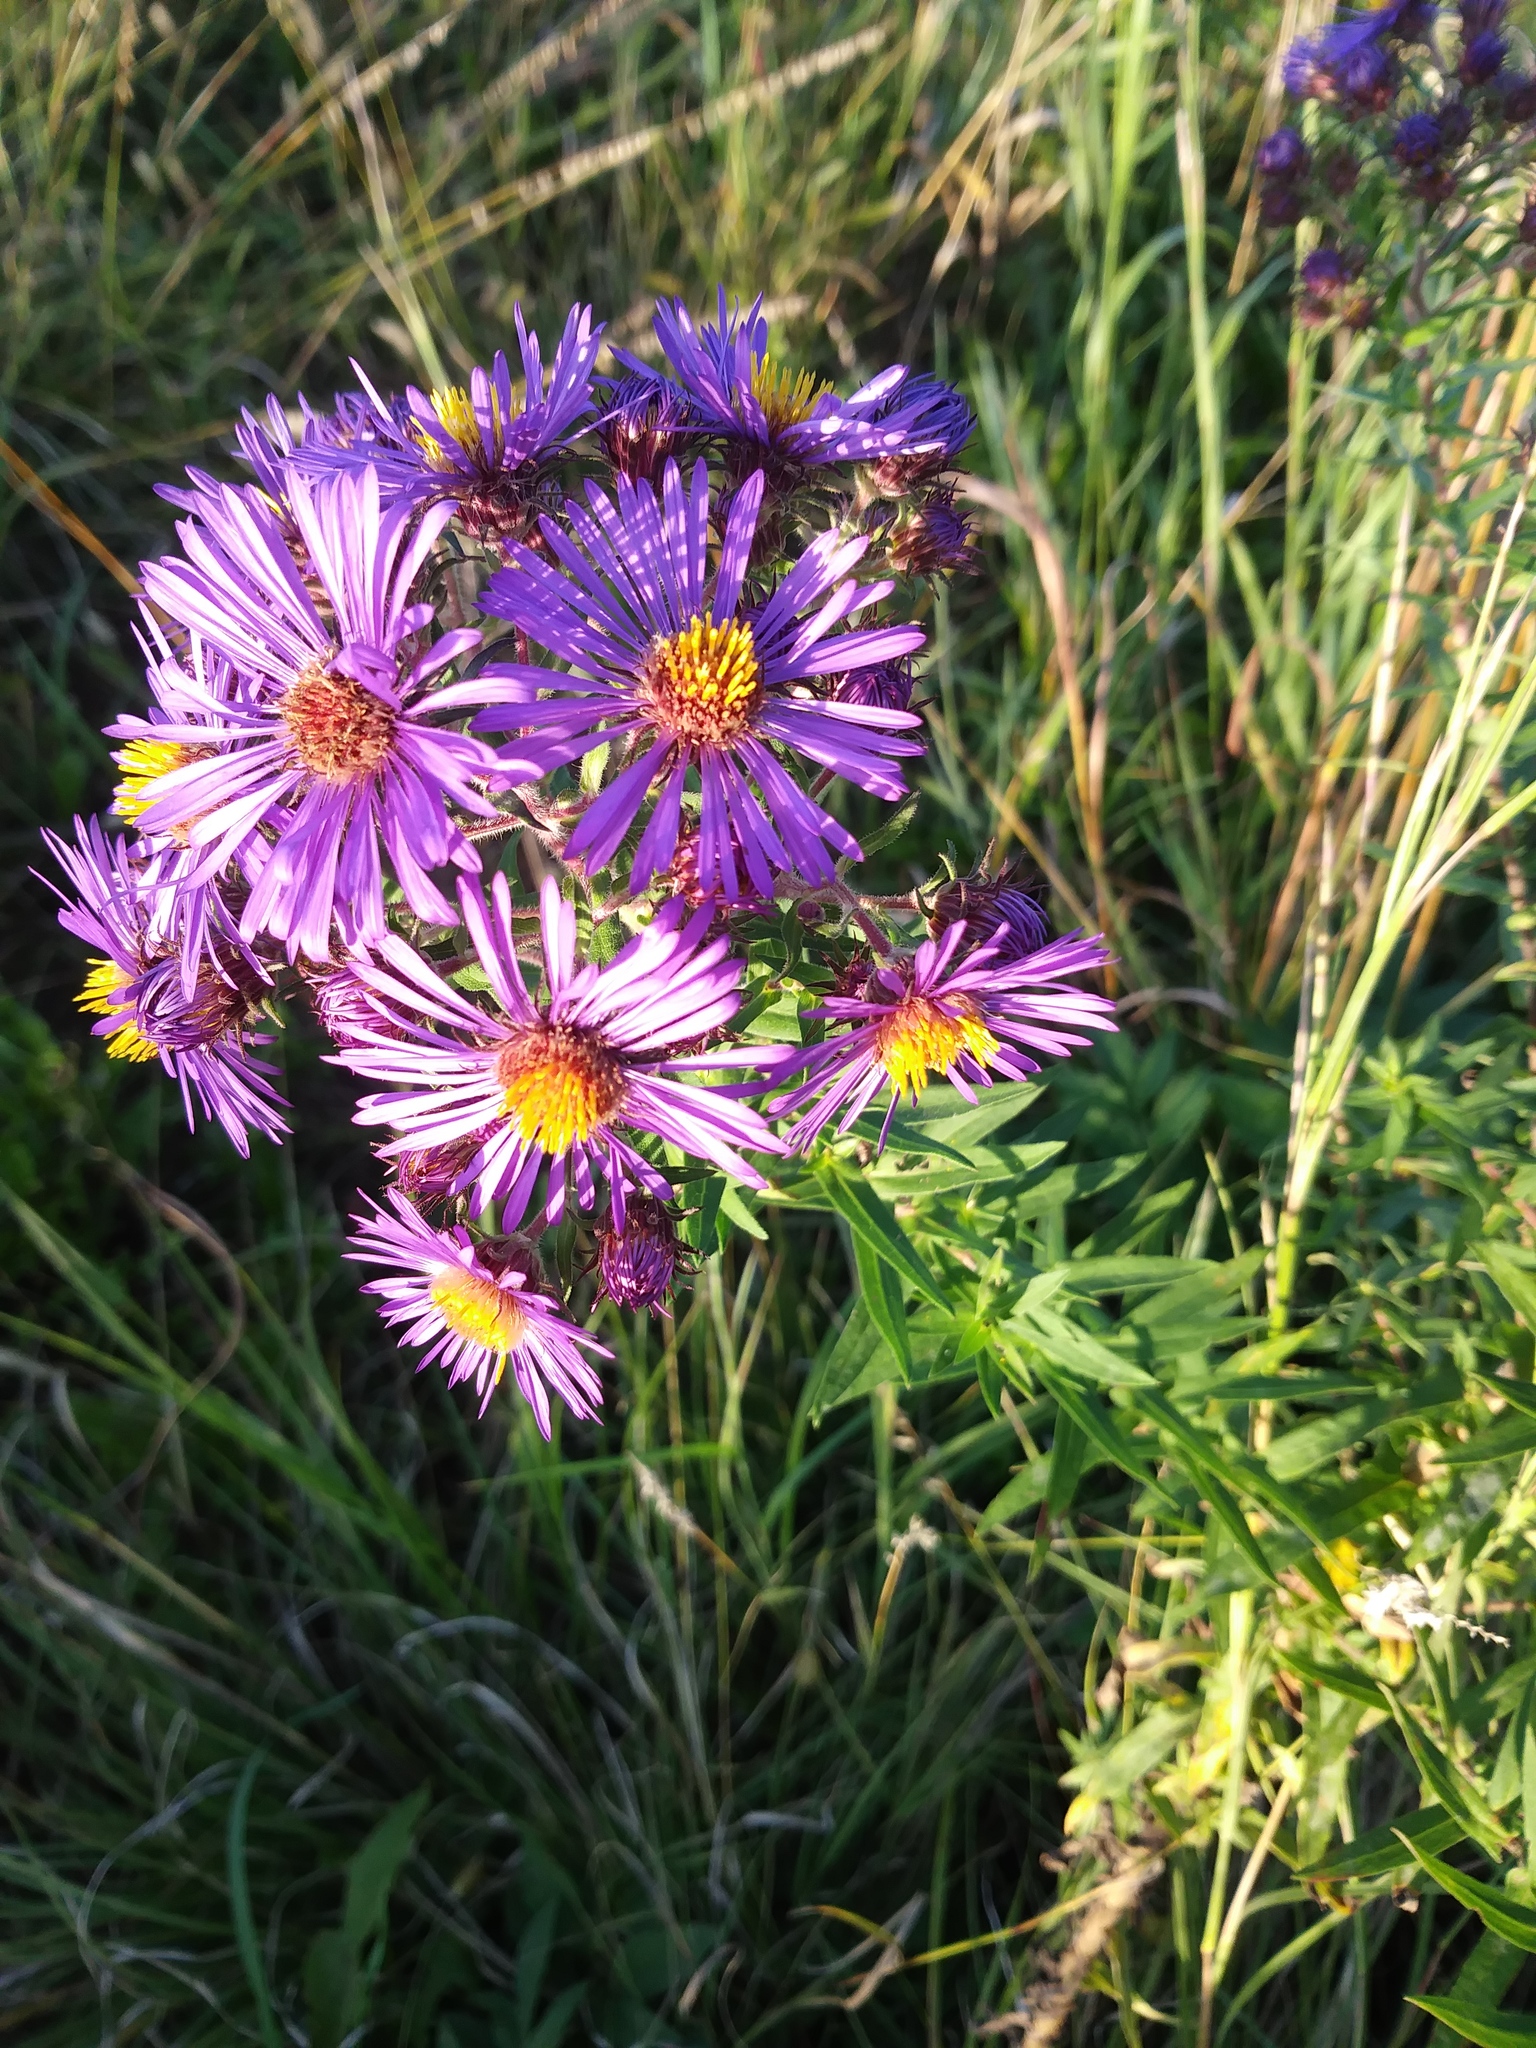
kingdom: Plantae
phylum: Tracheophyta
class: Magnoliopsida
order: Asterales
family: Asteraceae
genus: Symphyotrichum
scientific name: Symphyotrichum novae-angliae
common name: Michaelmas daisy
